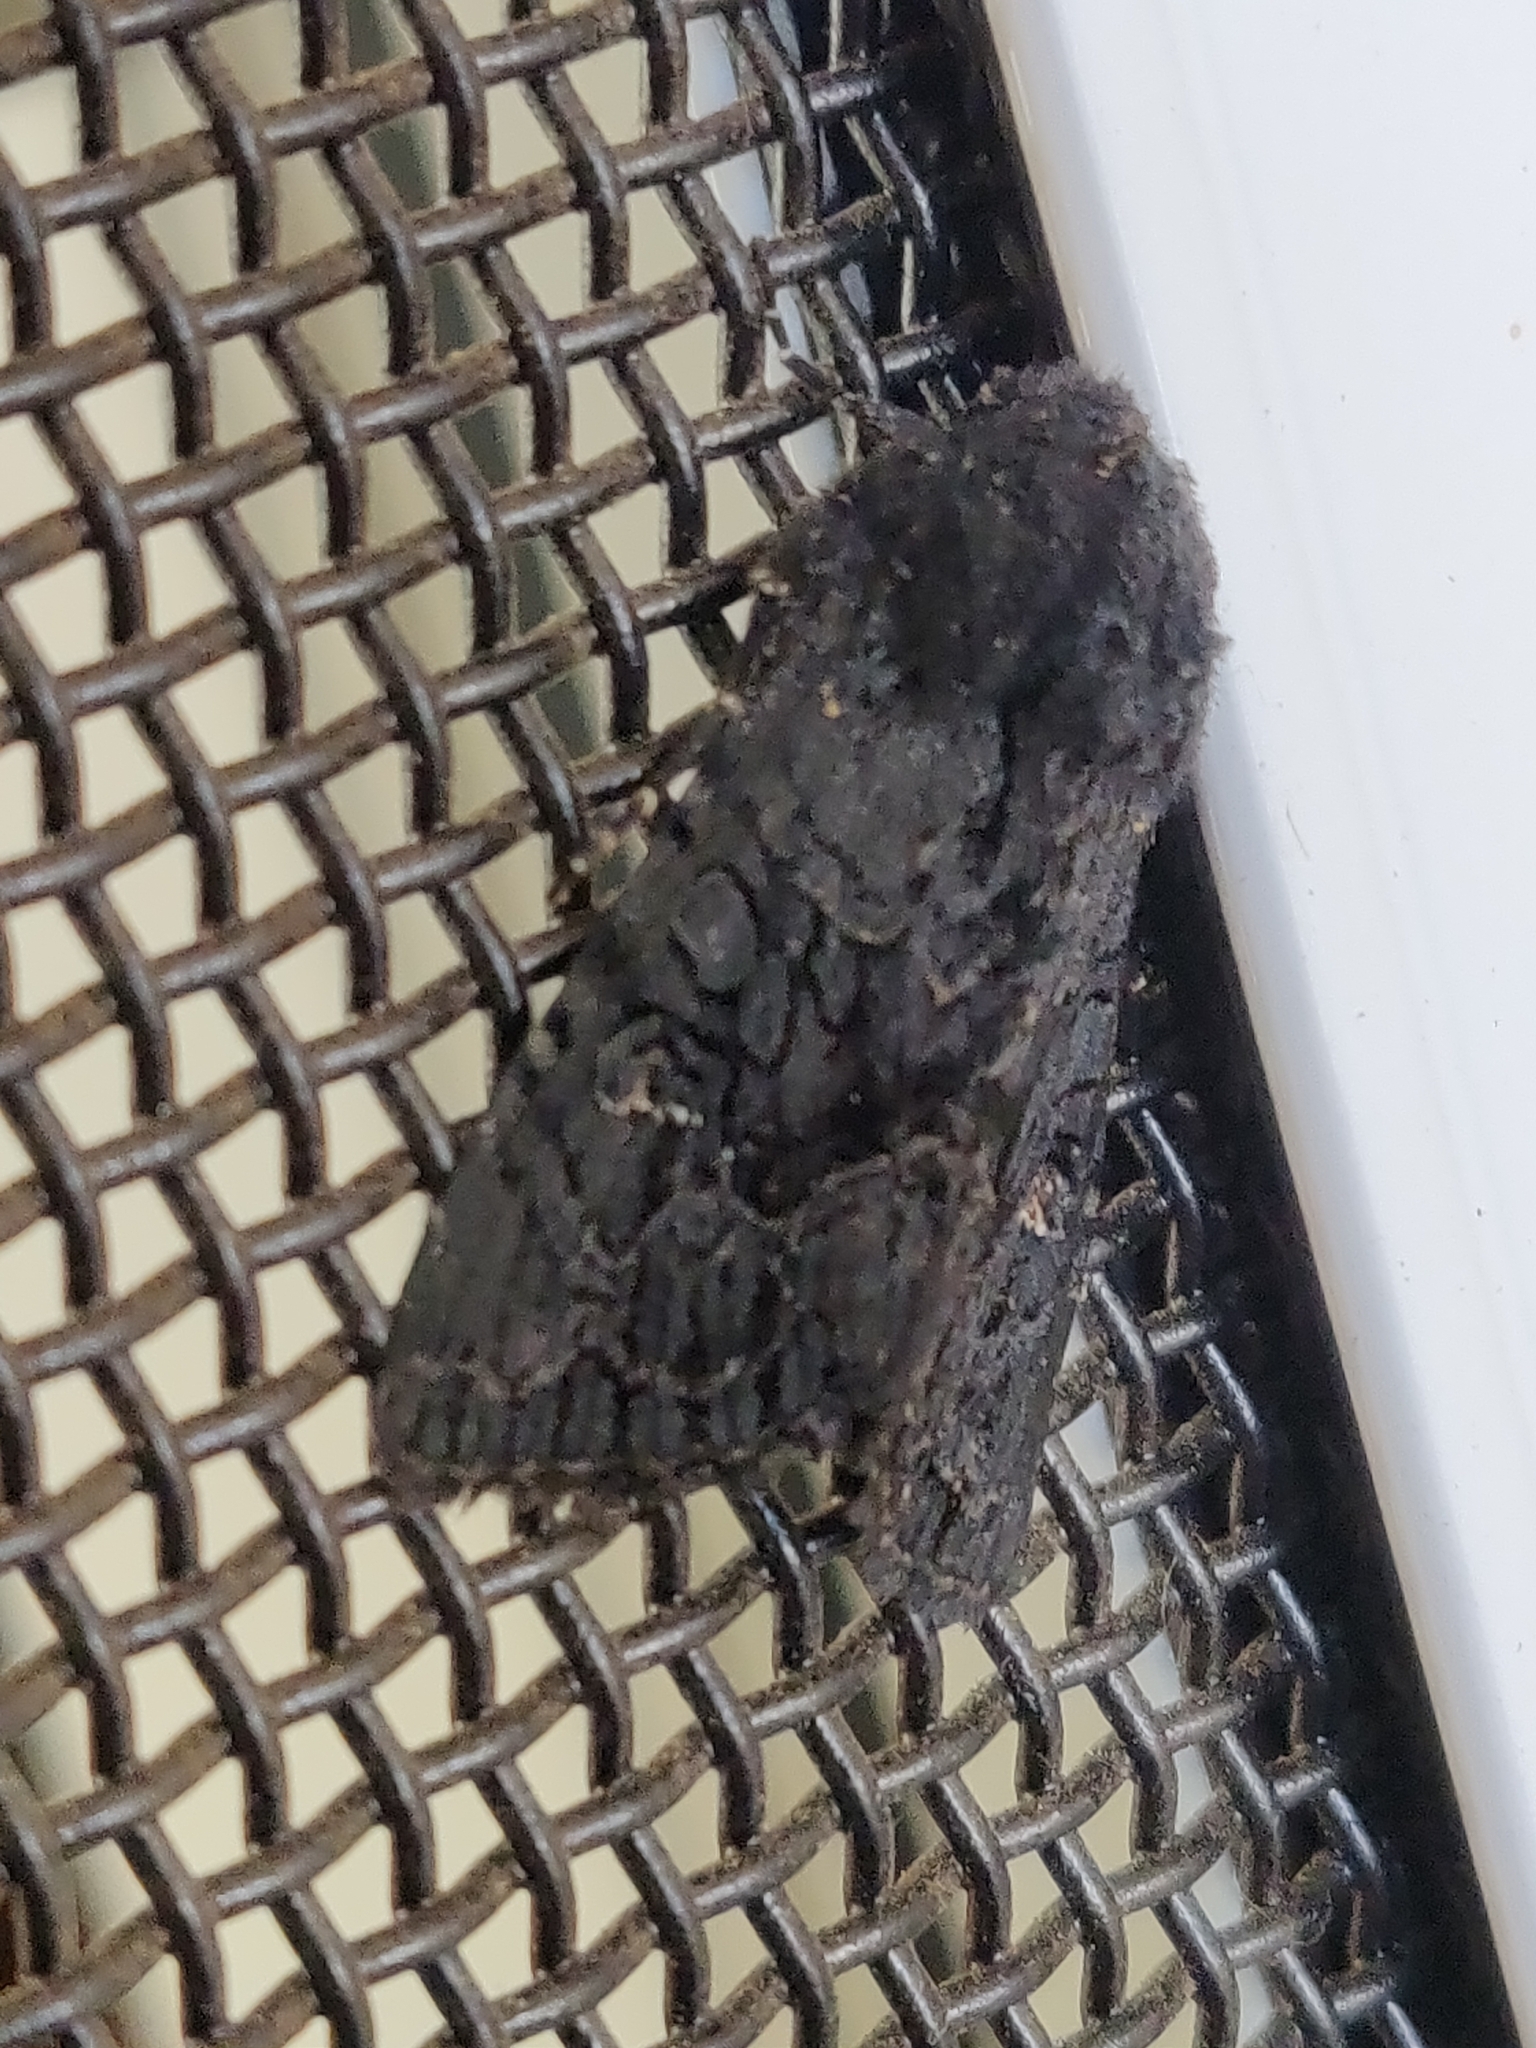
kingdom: Animalia
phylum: Arthropoda
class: Insecta
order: Lepidoptera
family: Noctuidae
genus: Neumichtis
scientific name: Neumichtis nigerrima
